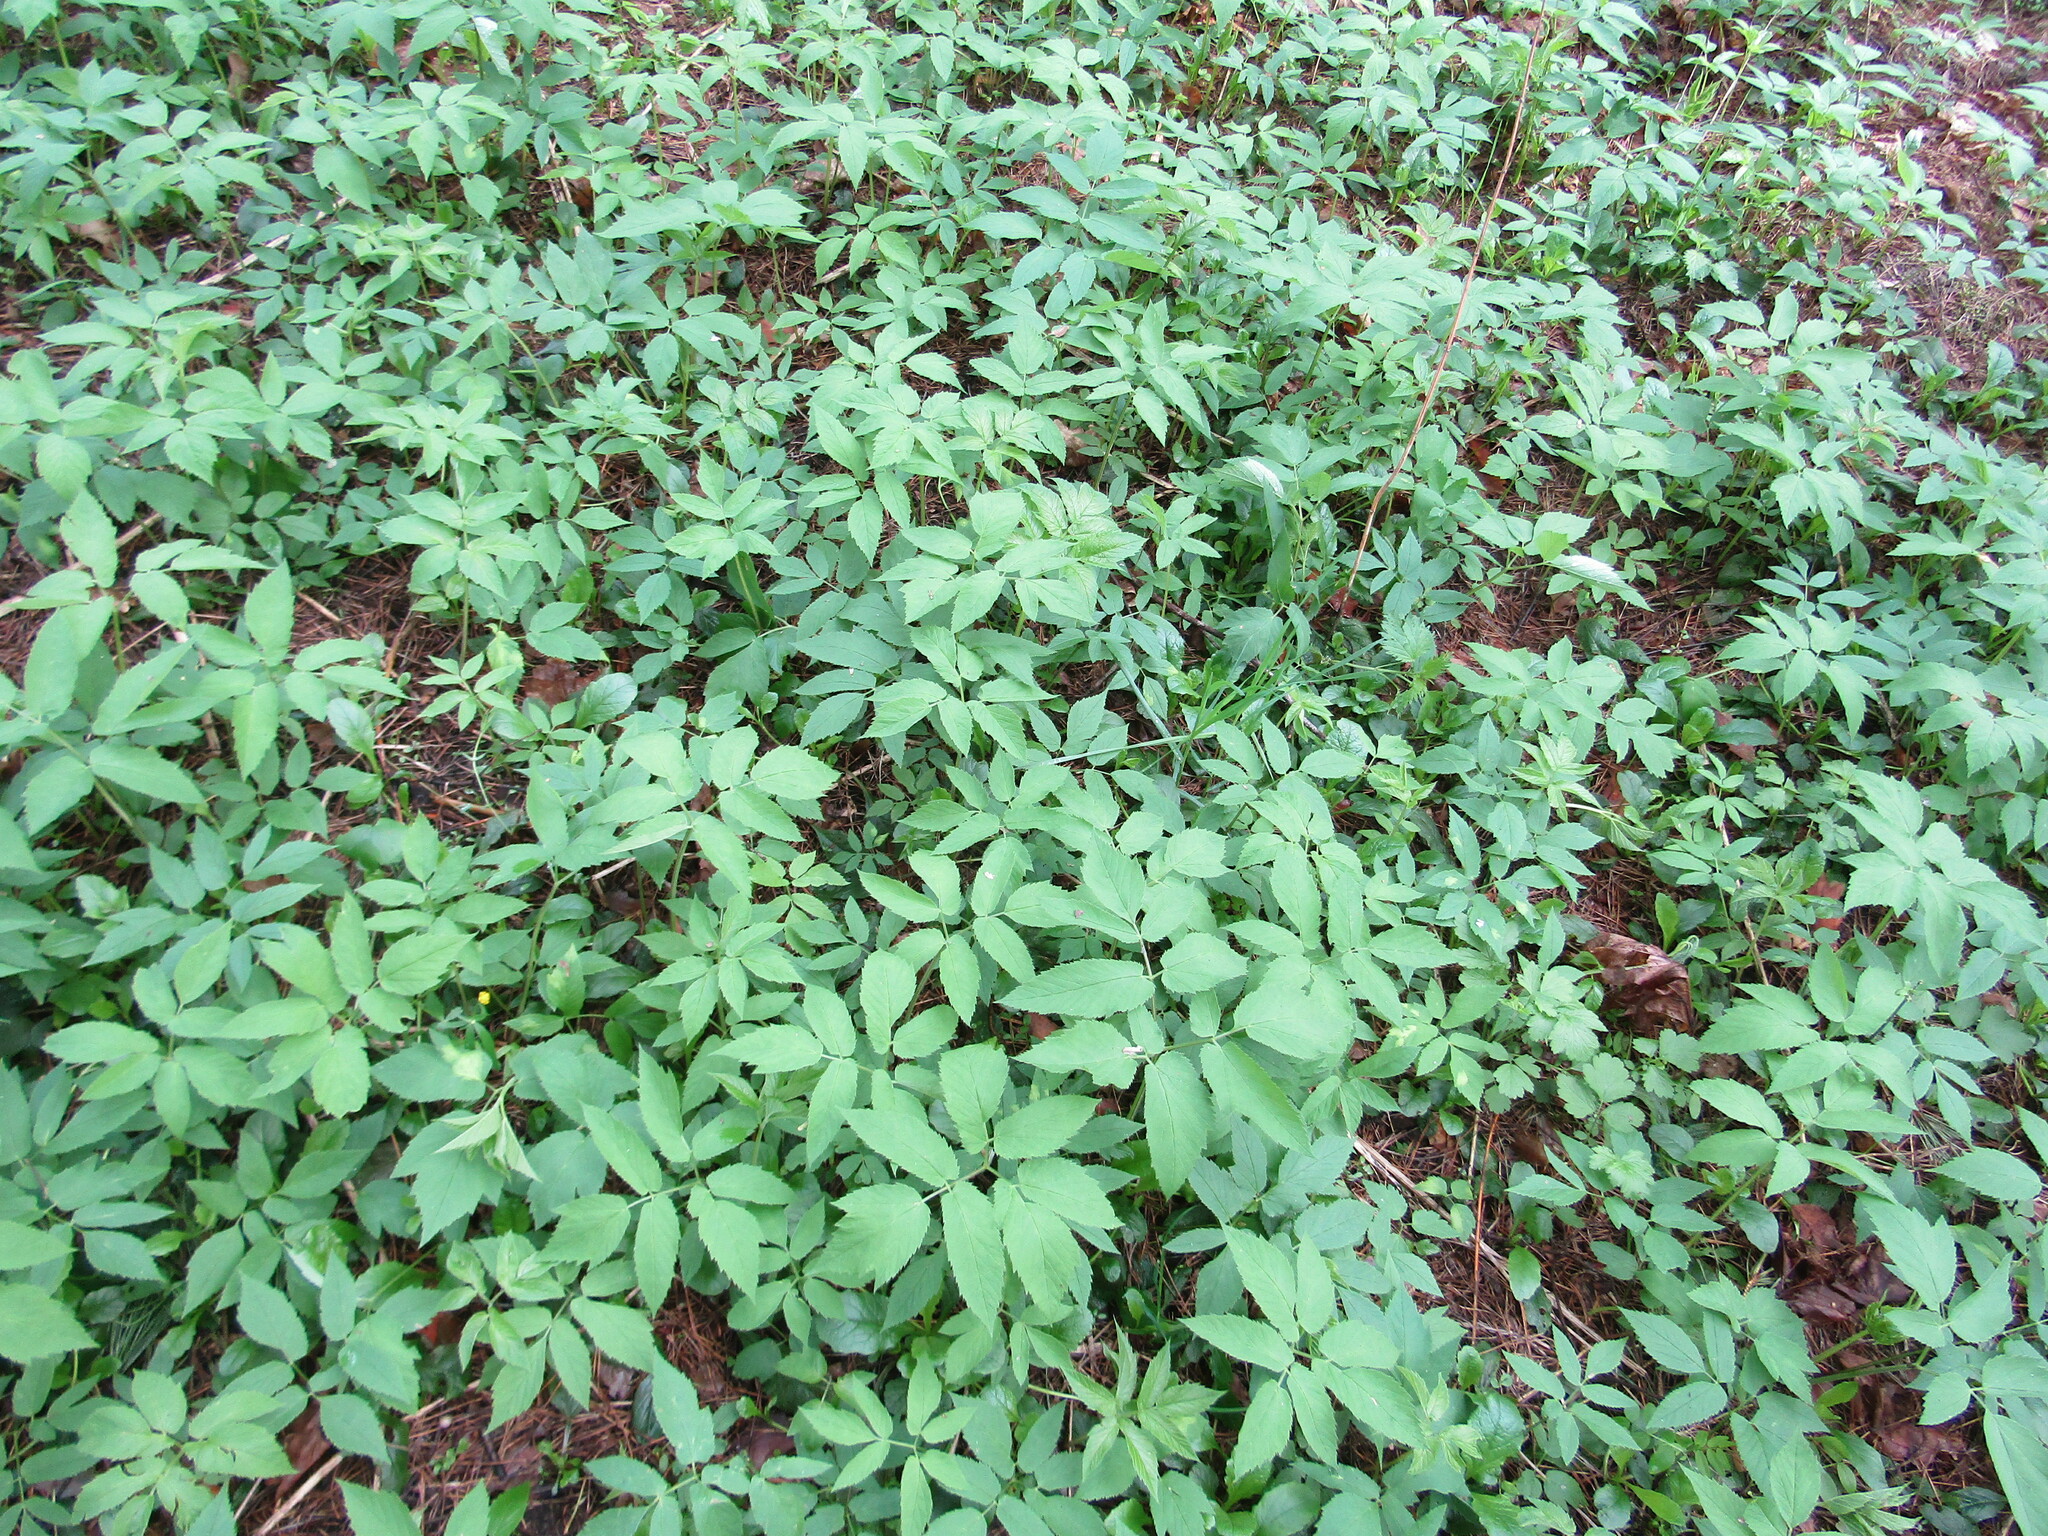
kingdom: Plantae
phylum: Tracheophyta
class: Magnoliopsida
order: Apiales
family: Apiaceae
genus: Aegopodium
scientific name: Aegopodium podagraria
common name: Ground-elder
